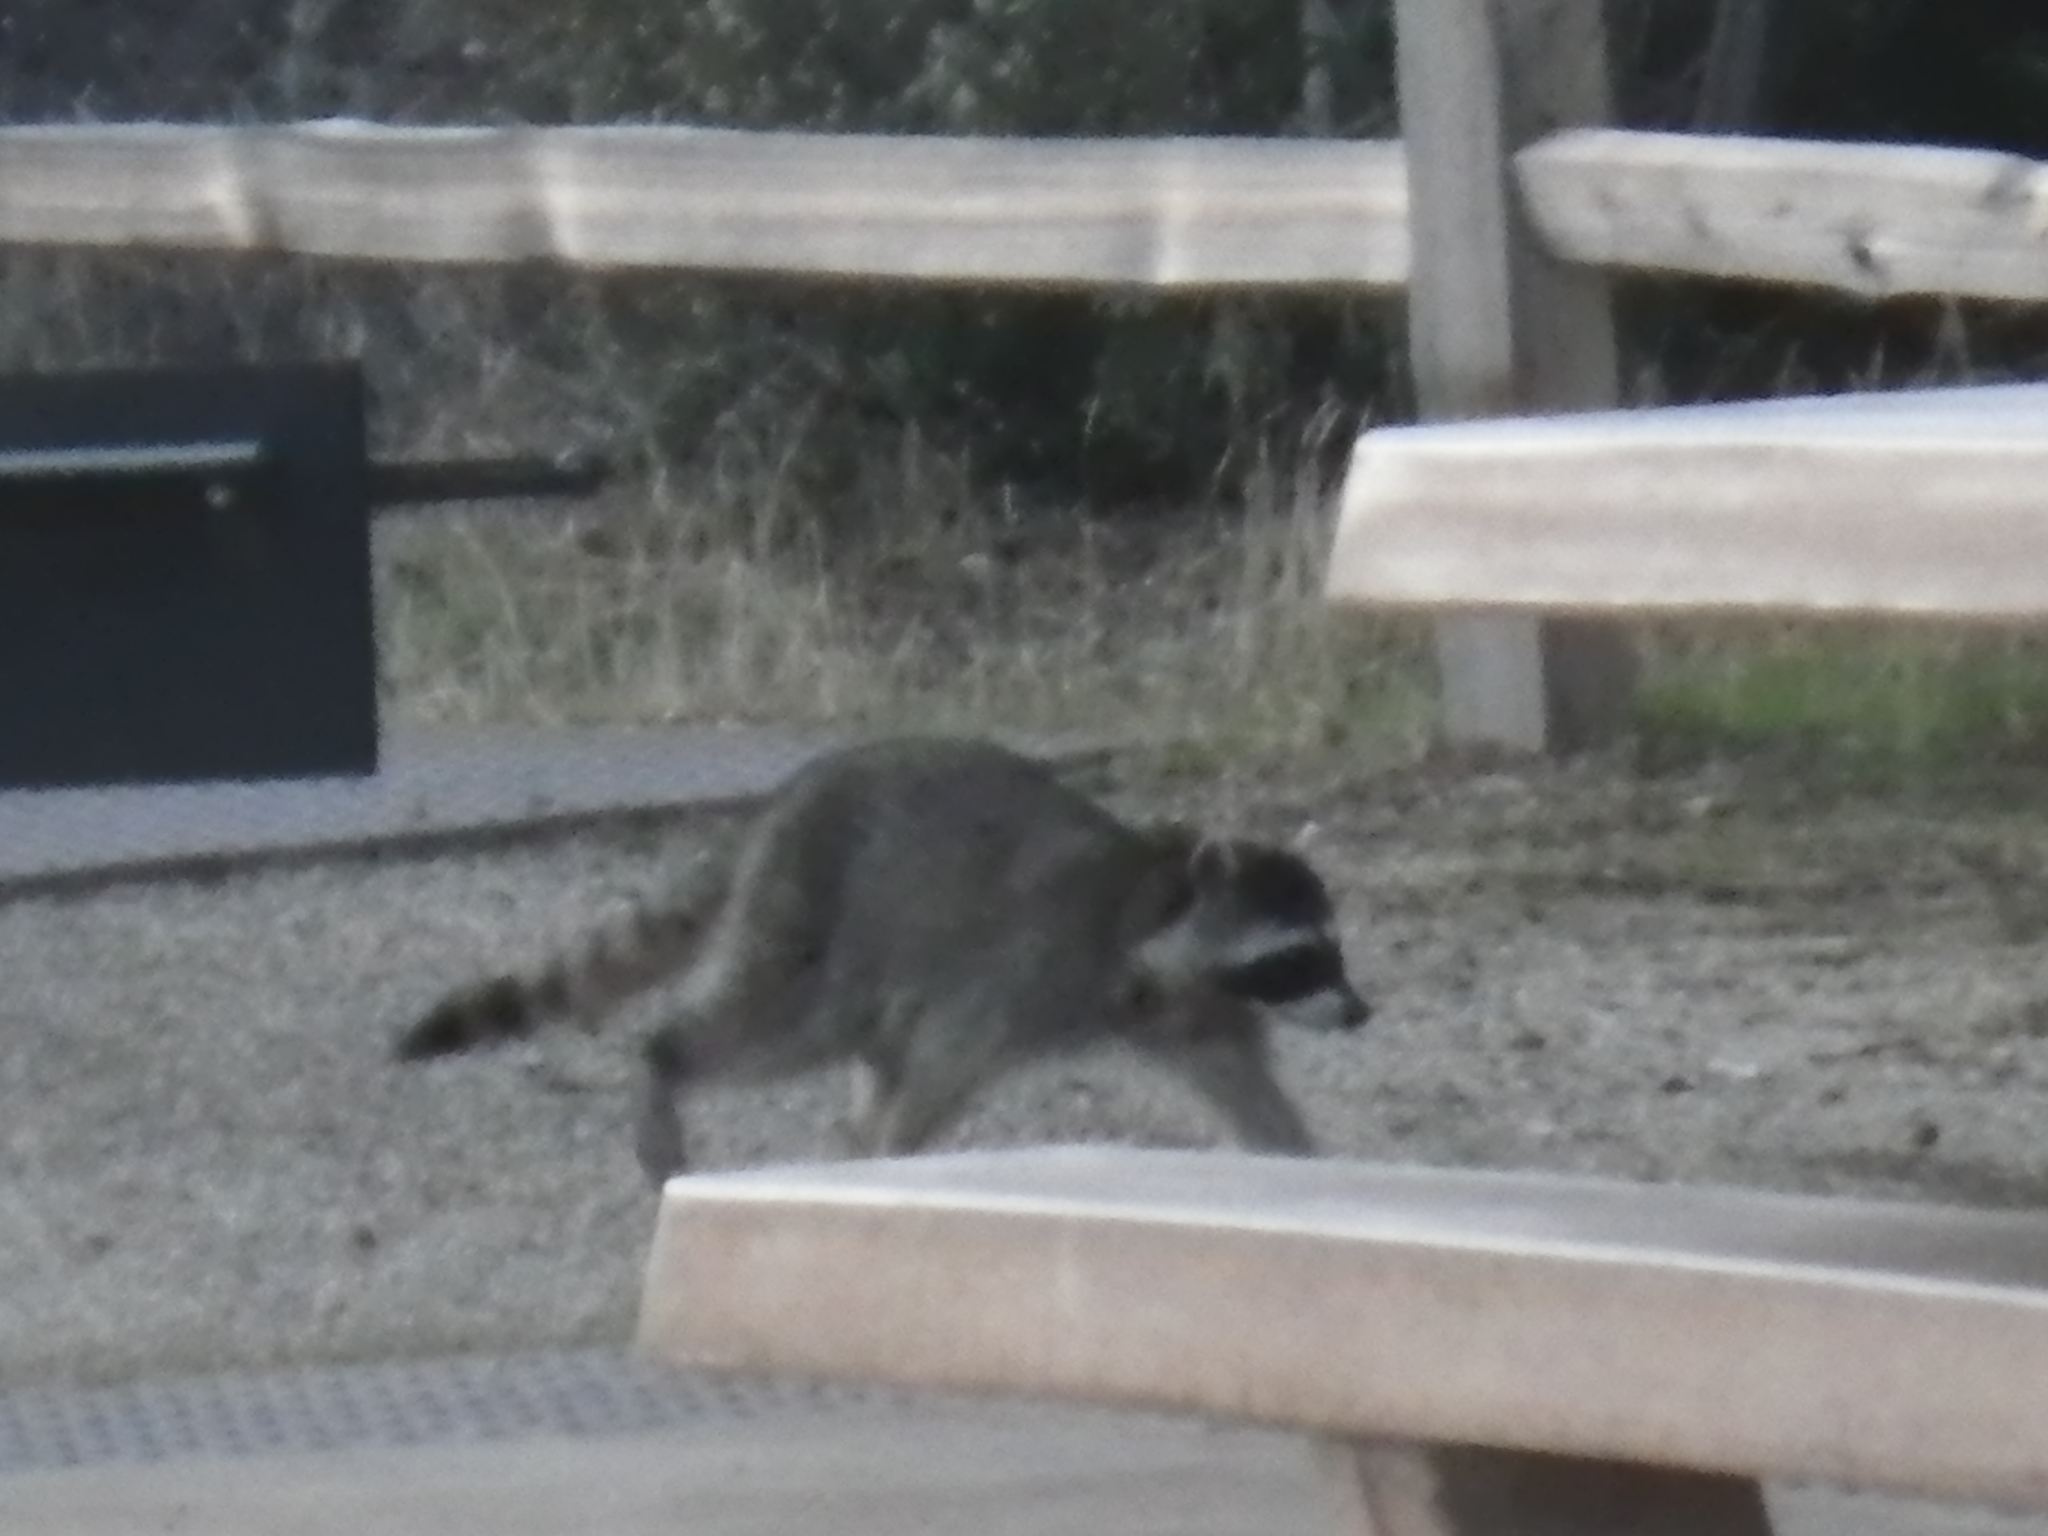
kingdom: Animalia
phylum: Chordata
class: Mammalia
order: Carnivora
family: Procyonidae
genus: Procyon
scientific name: Procyon lotor
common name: Raccoon
